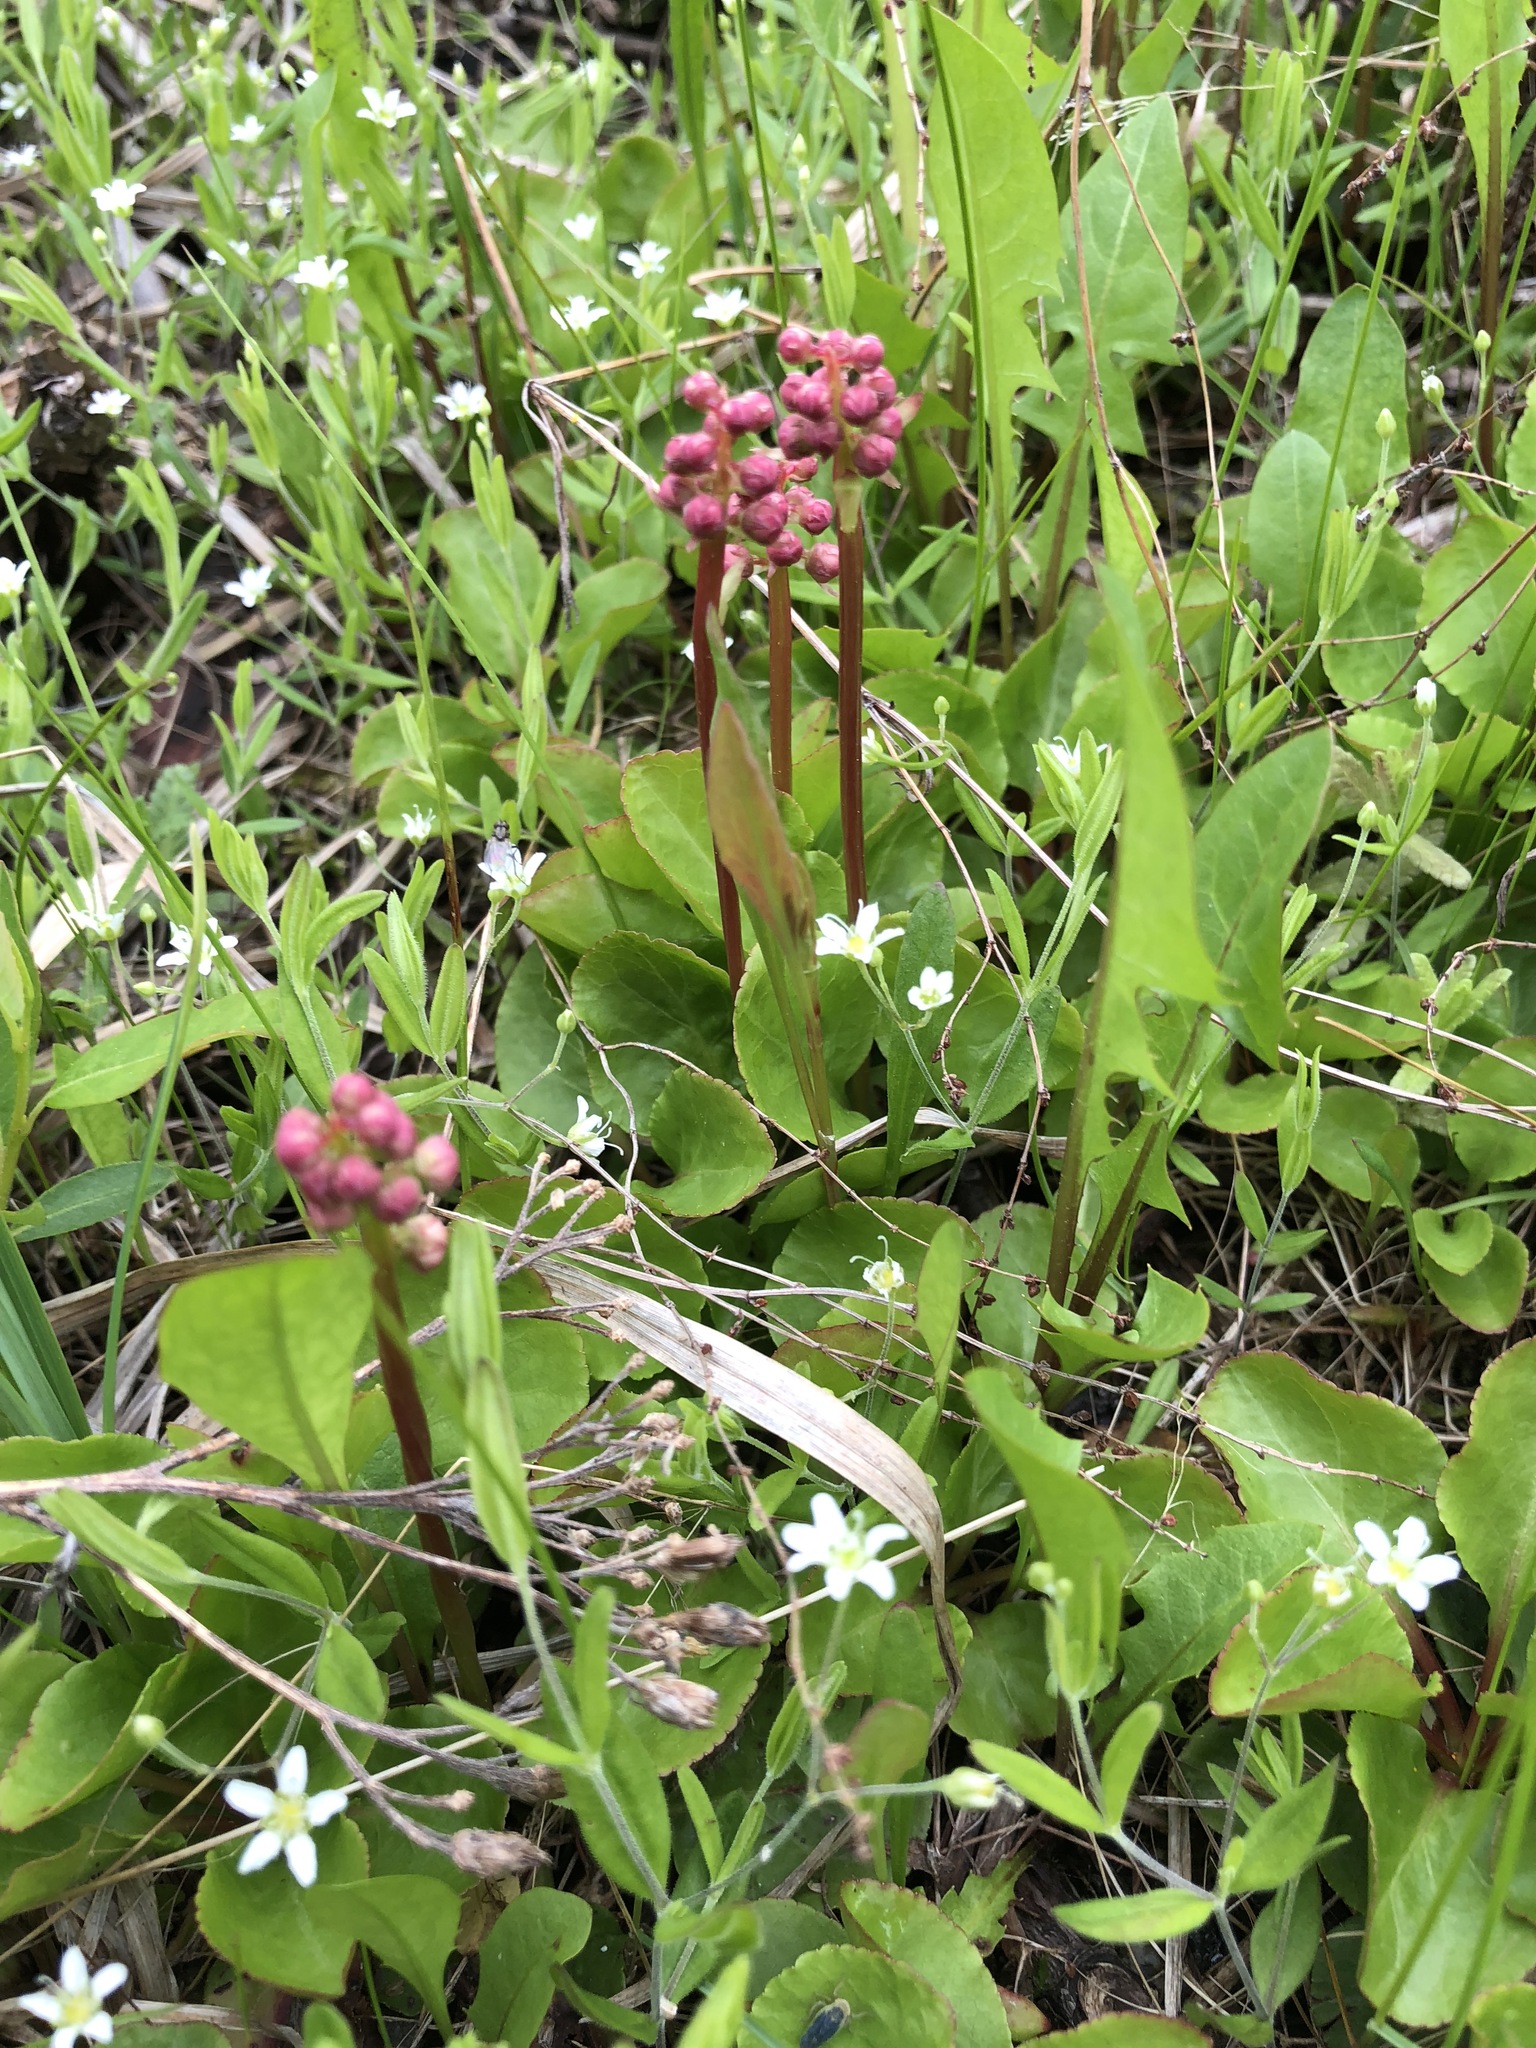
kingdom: Plantae
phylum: Tracheophyta
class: Magnoliopsida
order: Ericales
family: Ericaceae
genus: Pyrola
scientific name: Pyrola minor
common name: Common wintergreen
